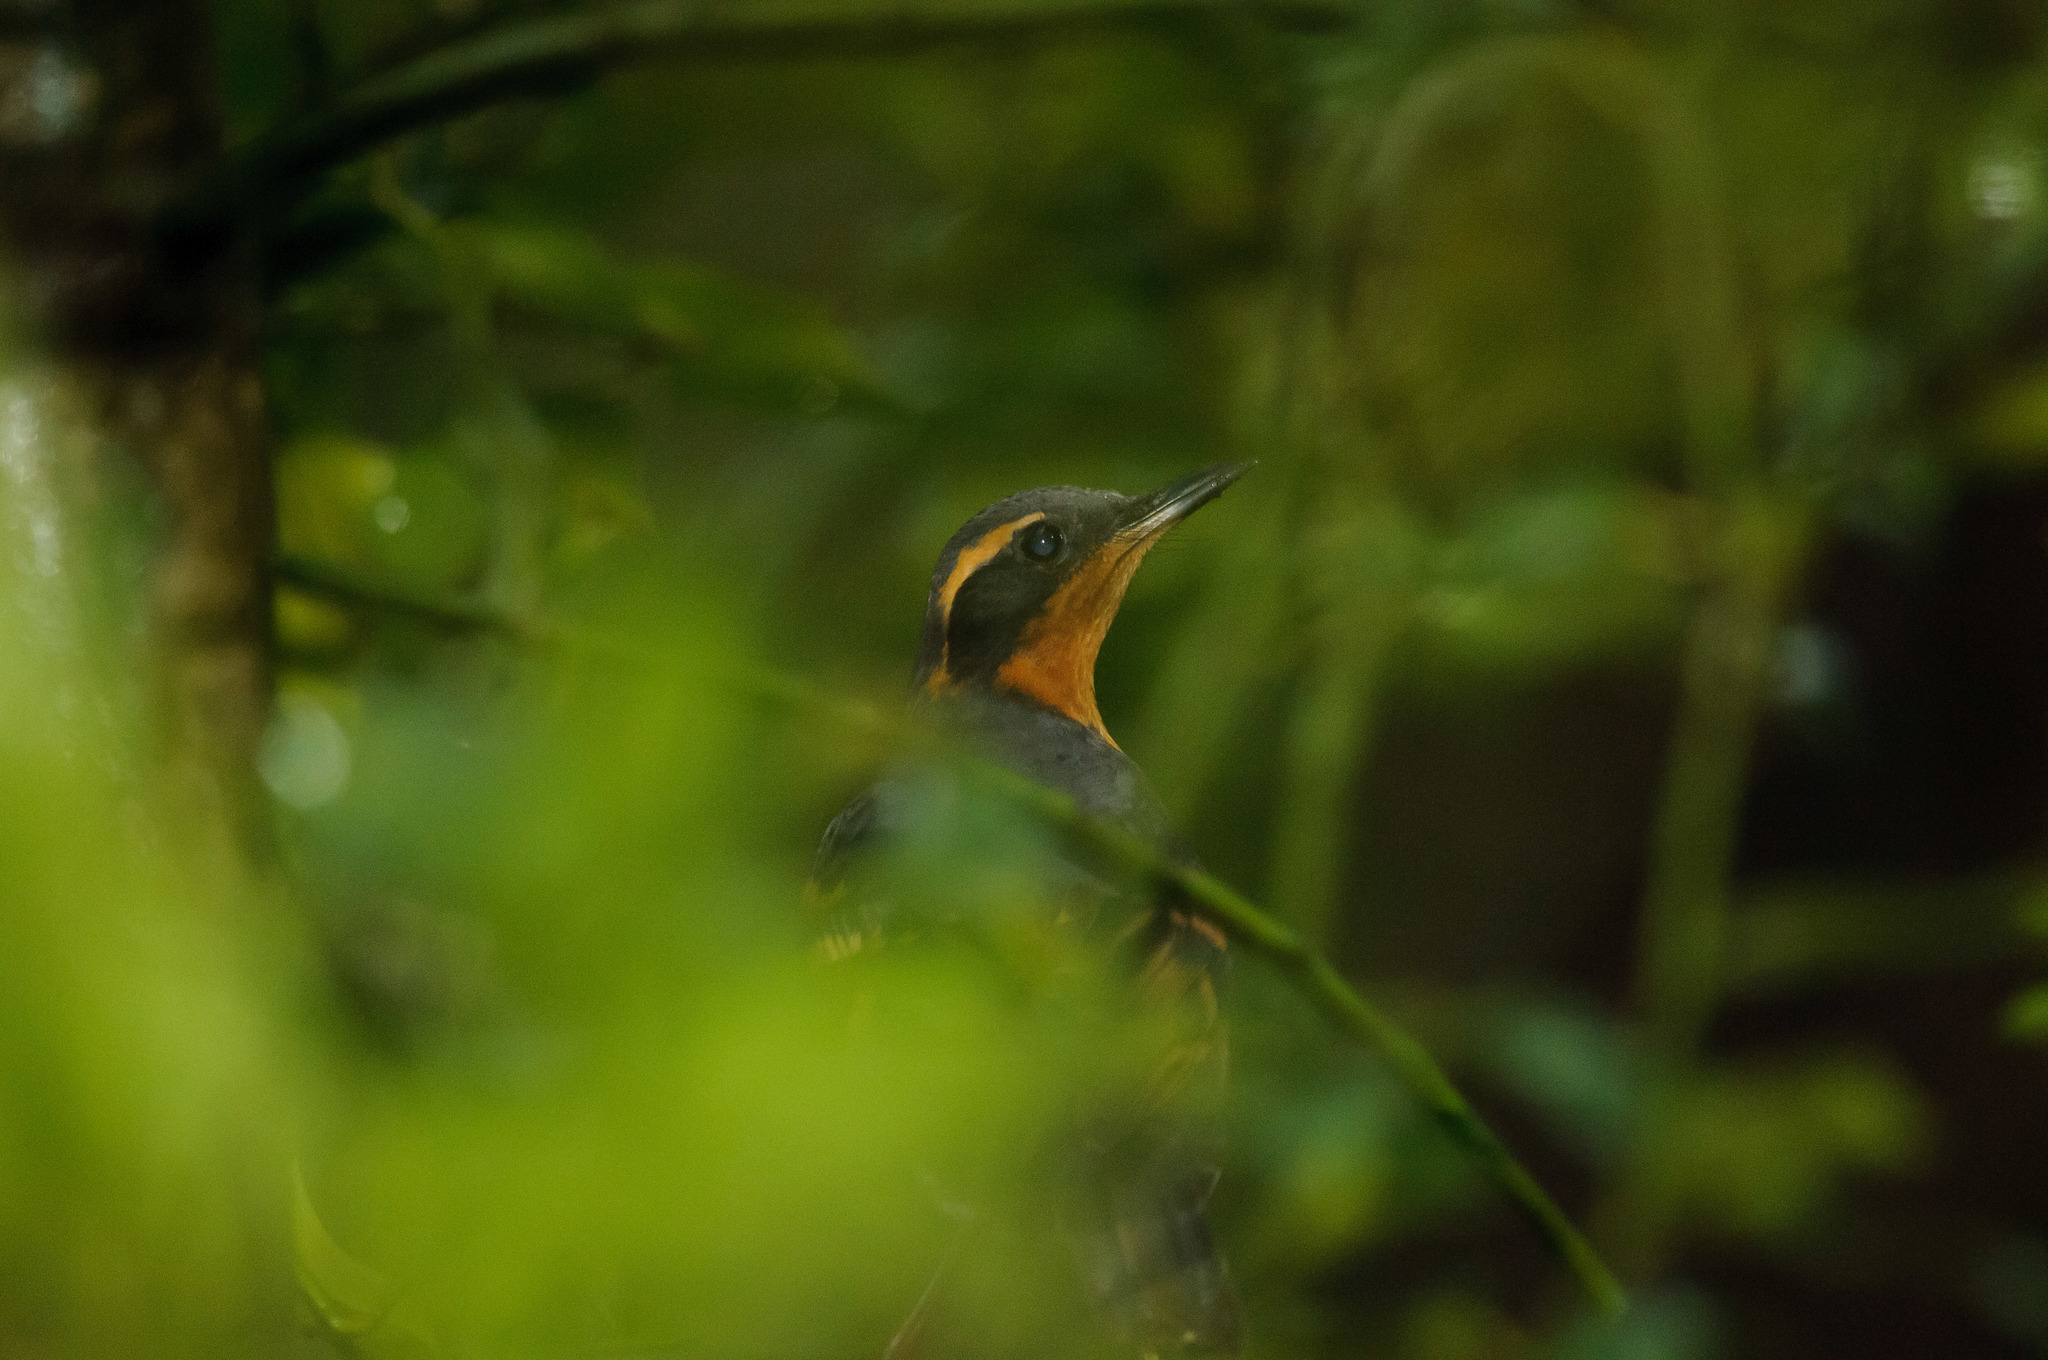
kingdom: Animalia
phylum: Chordata
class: Aves
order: Passeriformes
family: Turdidae
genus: Ixoreus
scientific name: Ixoreus naevius
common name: Varied thrush
